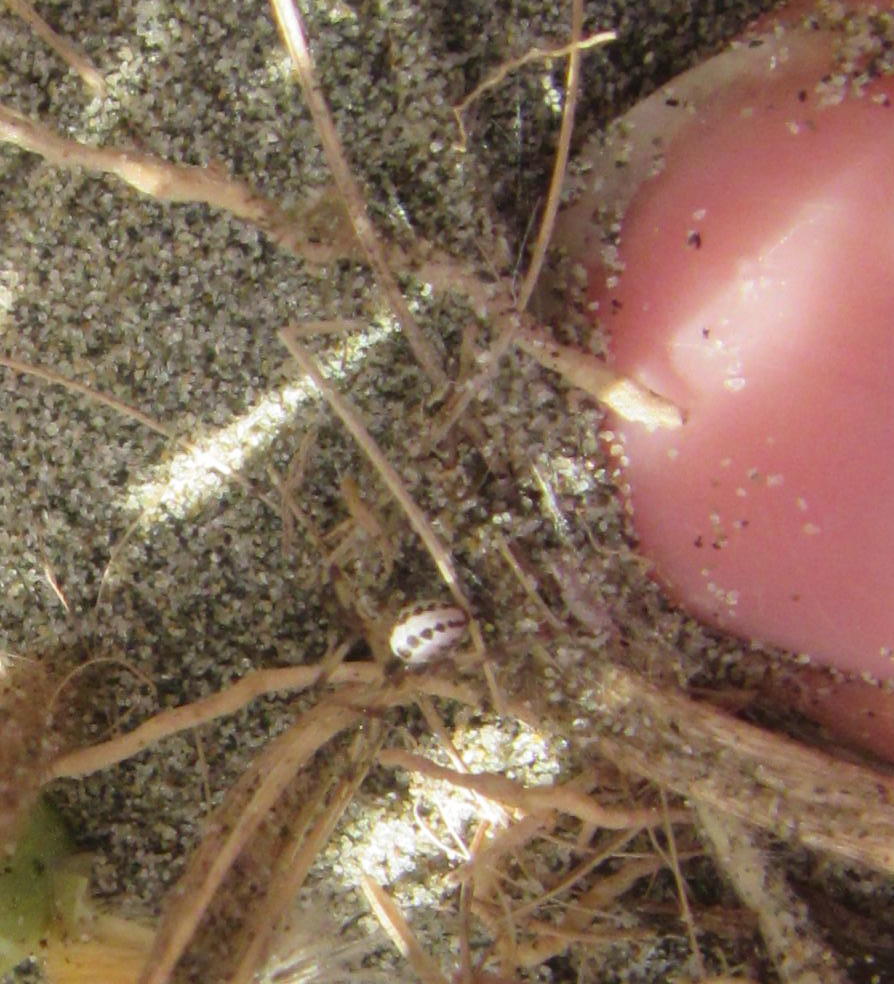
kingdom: Animalia
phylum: Arthropoda
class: Arachnida
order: Araneae
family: Theridiidae
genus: Latrodectus
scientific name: Latrodectus katipo
